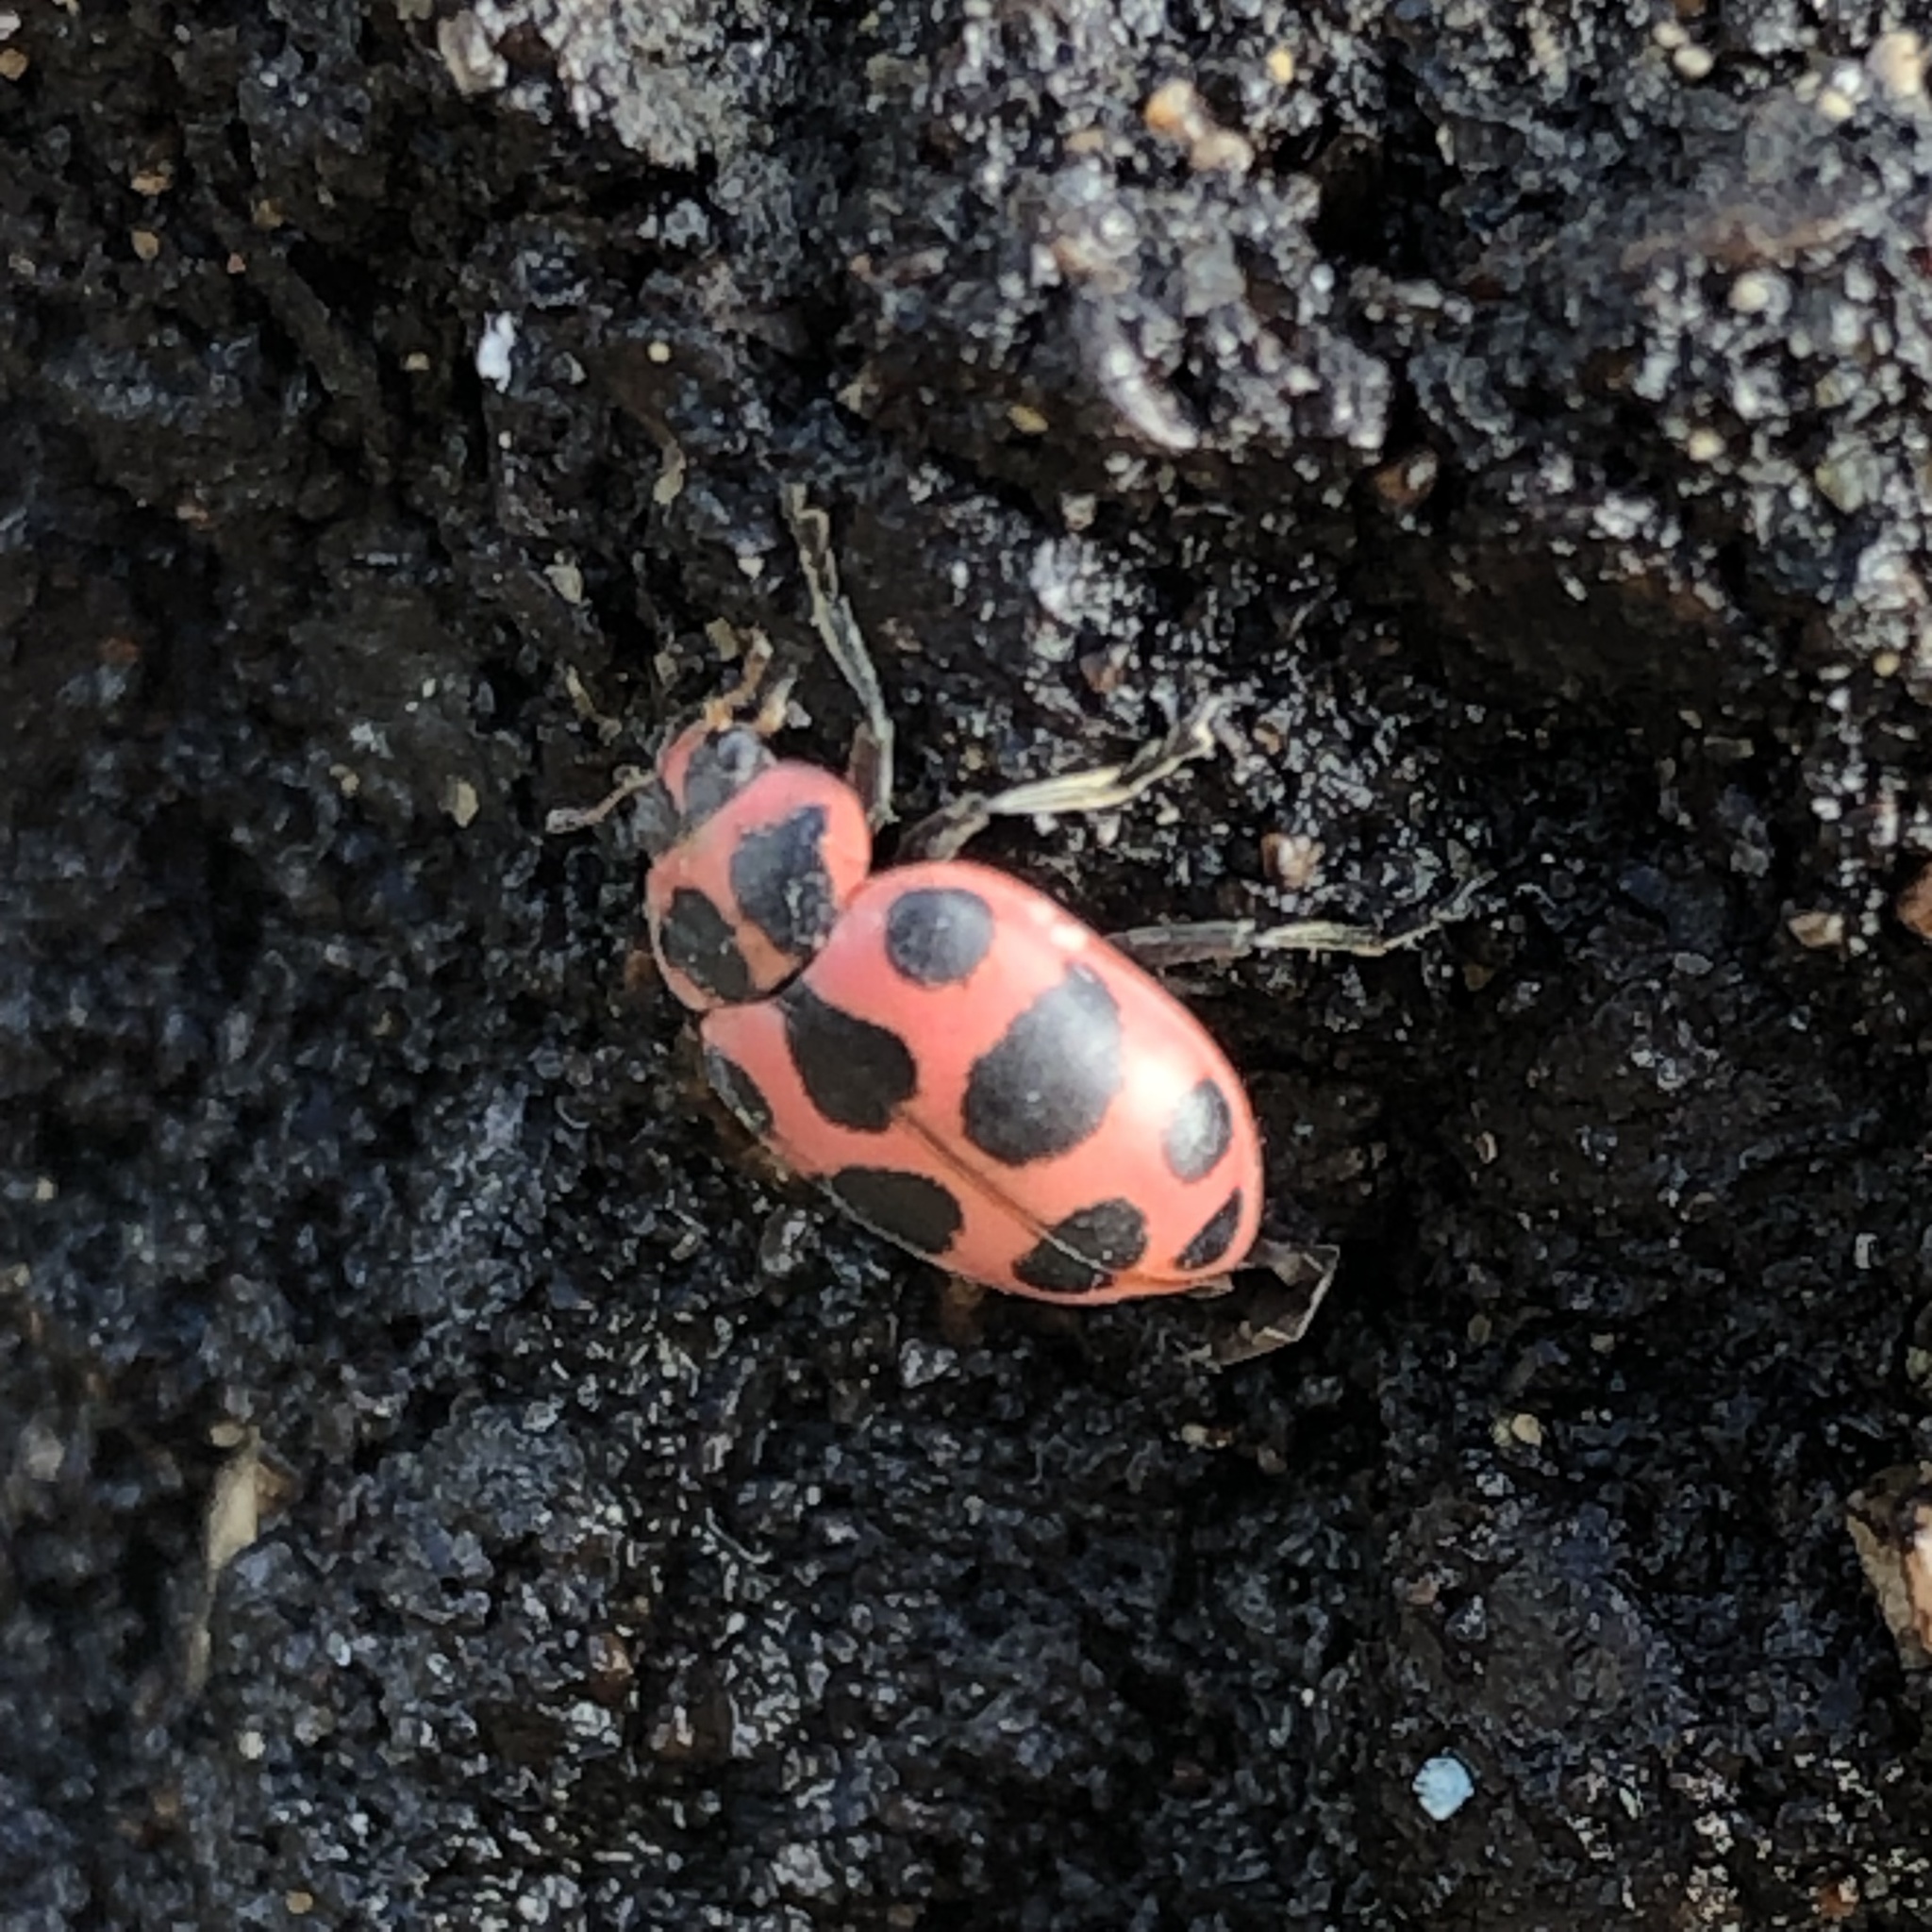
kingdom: Animalia
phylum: Arthropoda
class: Insecta
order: Coleoptera
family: Coccinellidae
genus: Coleomegilla
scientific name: Coleomegilla maculata
